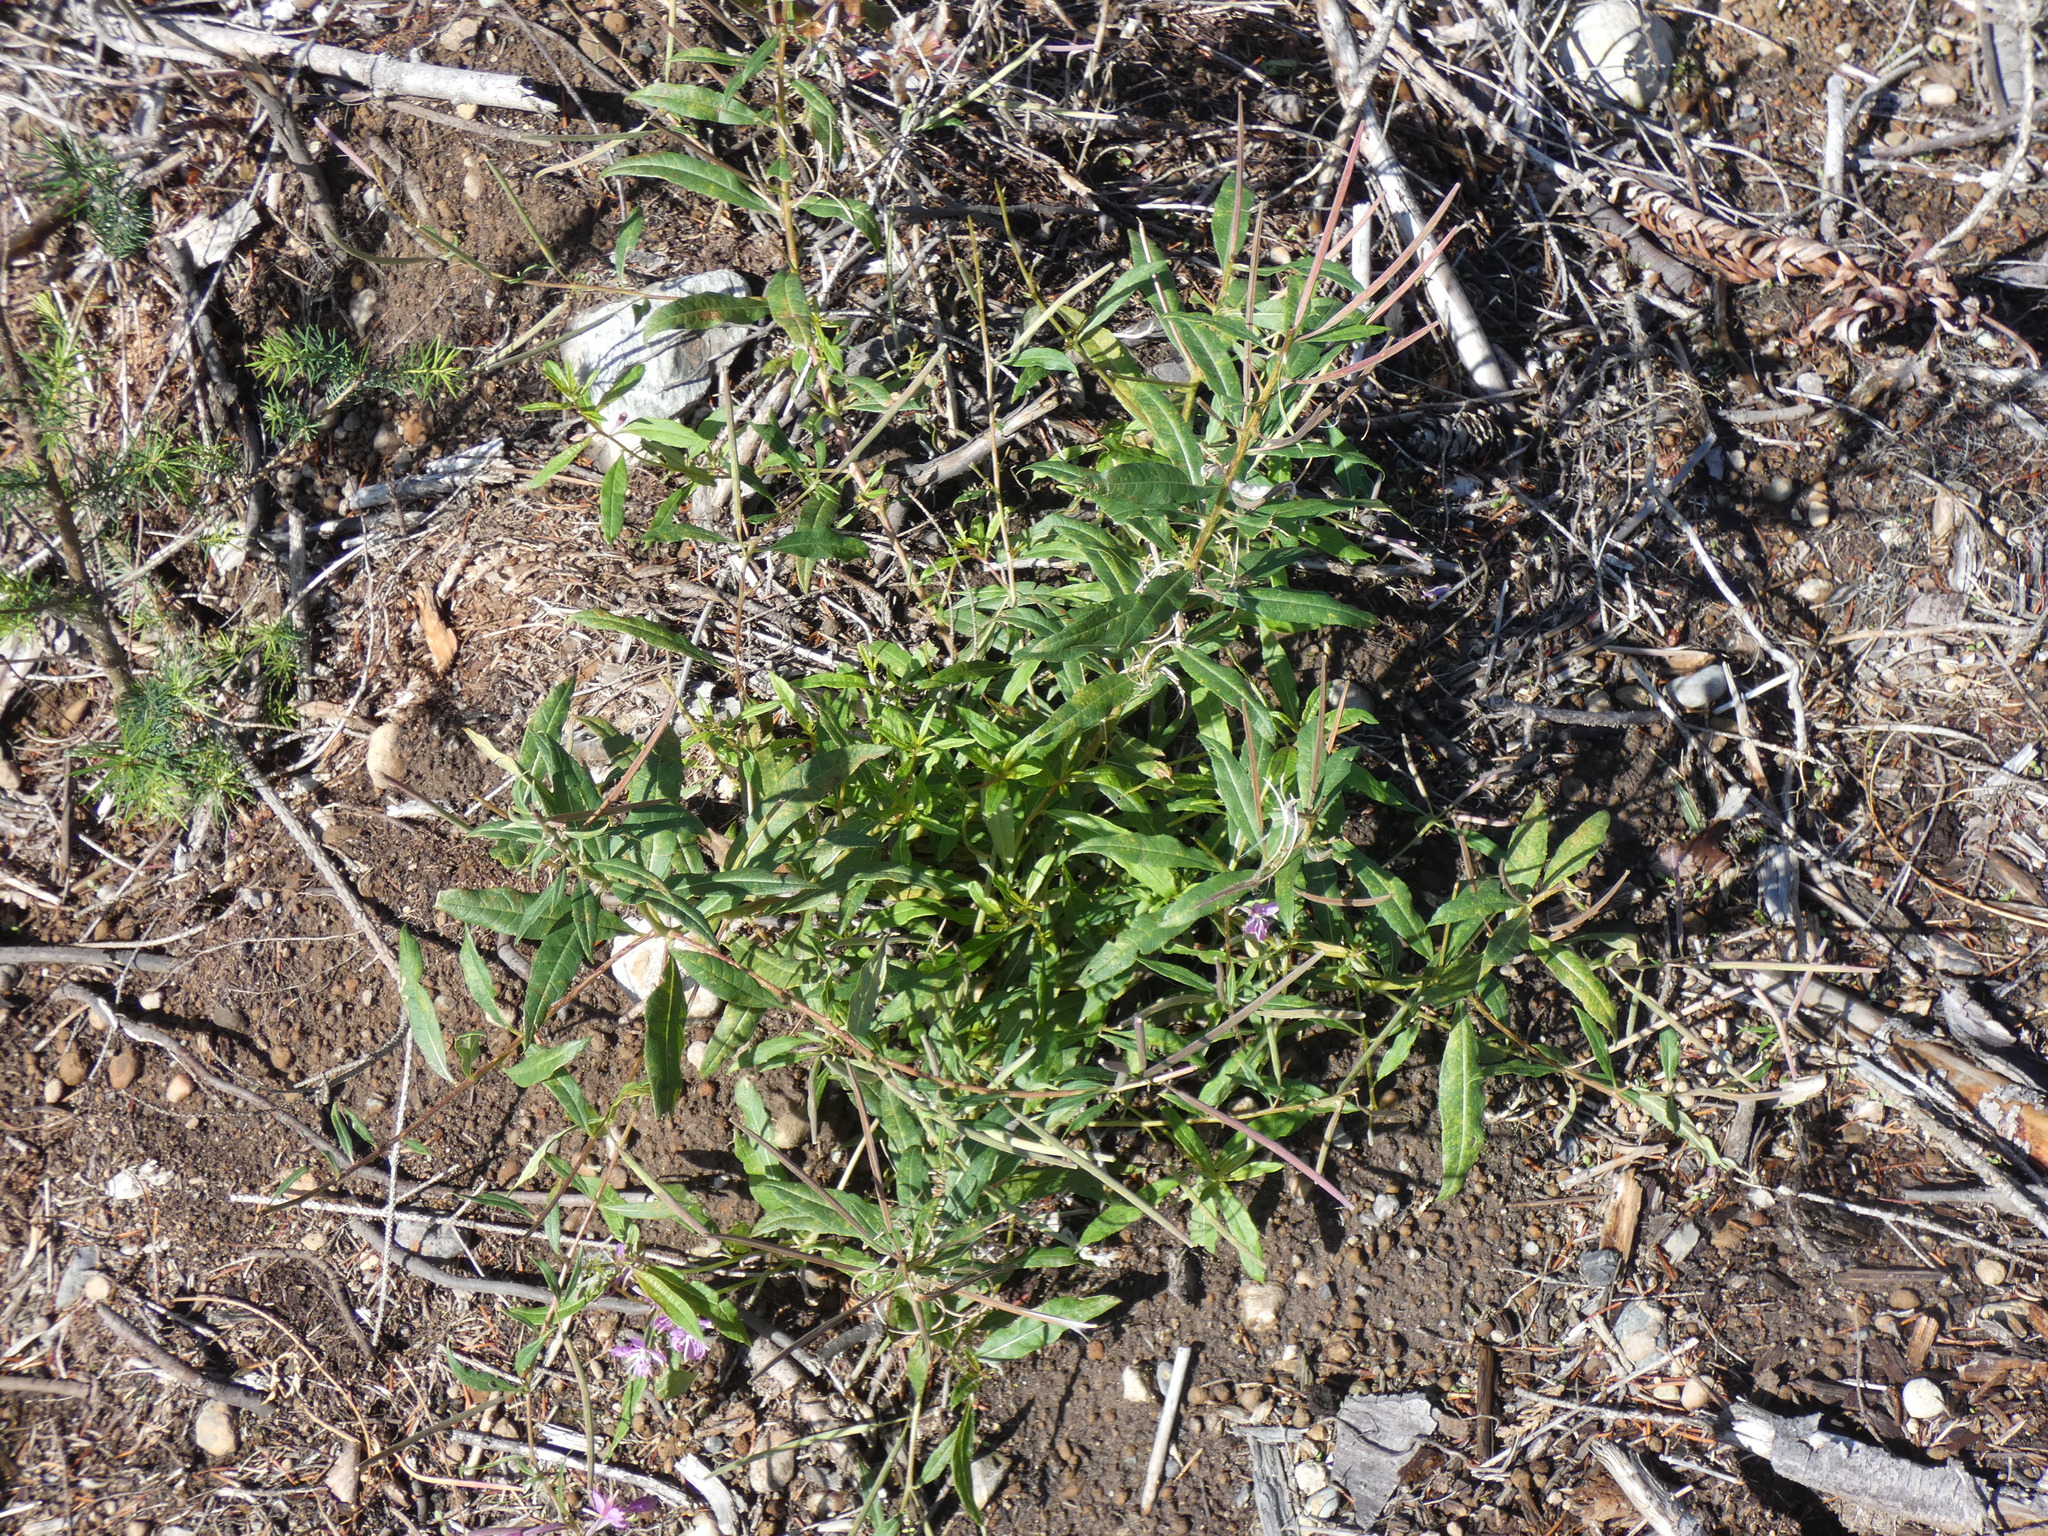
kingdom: Plantae
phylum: Tracheophyta
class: Magnoliopsida
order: Myrtales
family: Onagraceae
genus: Chamaenerion
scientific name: Chamaenerion angustifolium
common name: Fireweed
